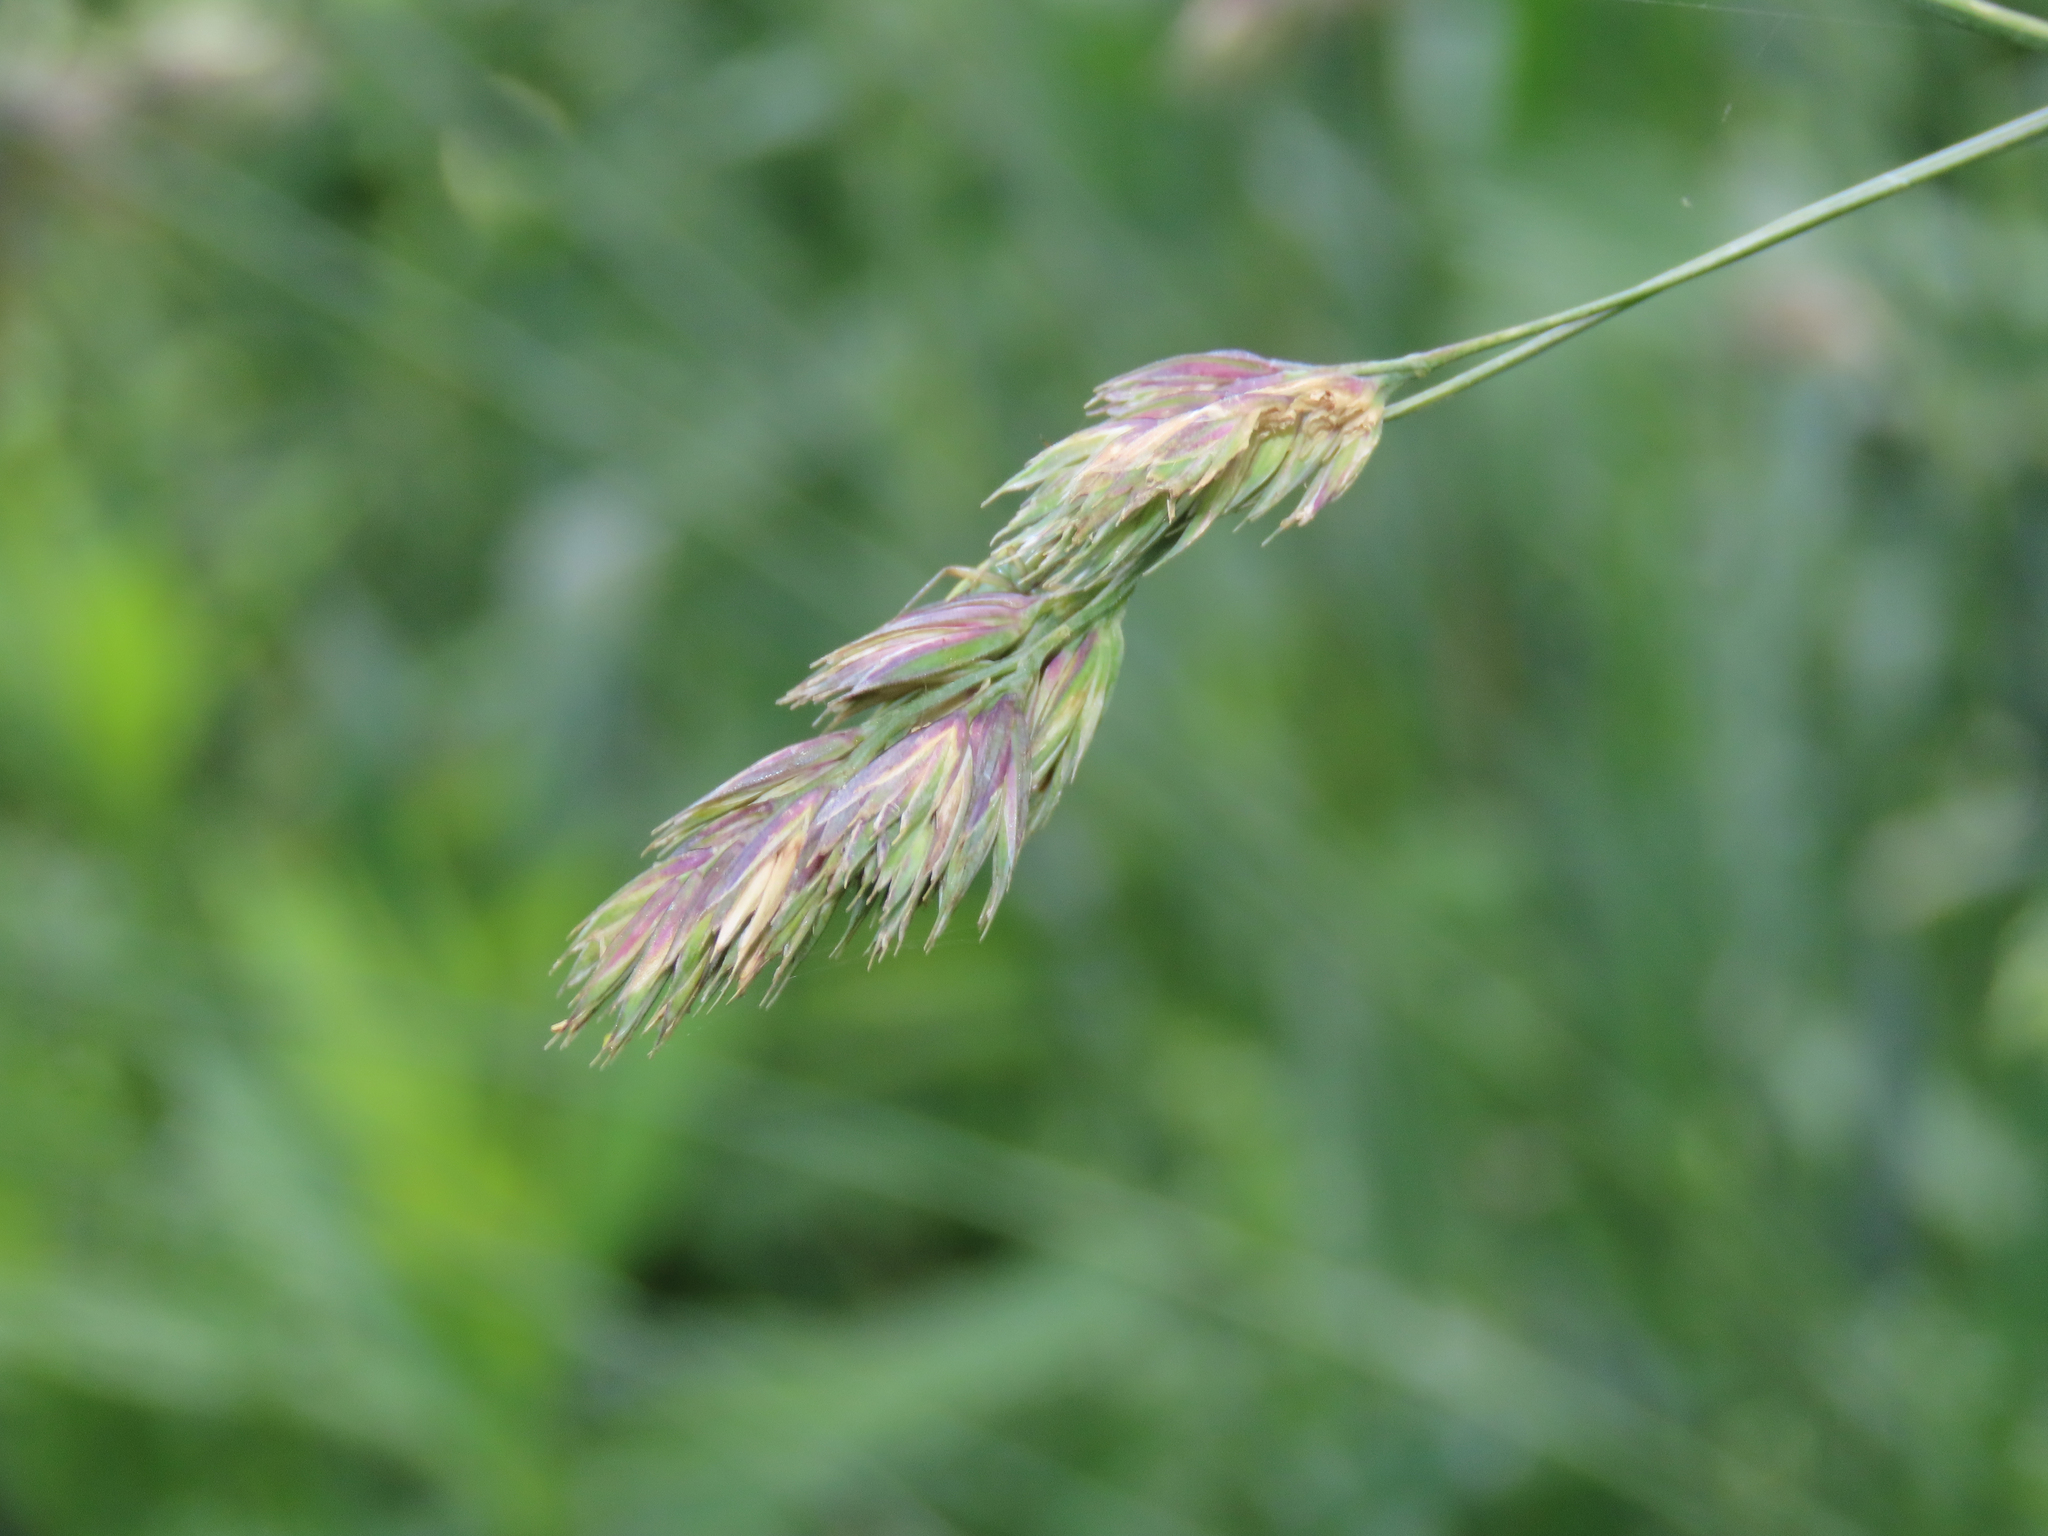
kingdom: Plantae
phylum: Tracheophyta
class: Liliopsida
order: Poales
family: Poaceae
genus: Dactylis
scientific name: Dactylis glomerata
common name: Orchardgrass
